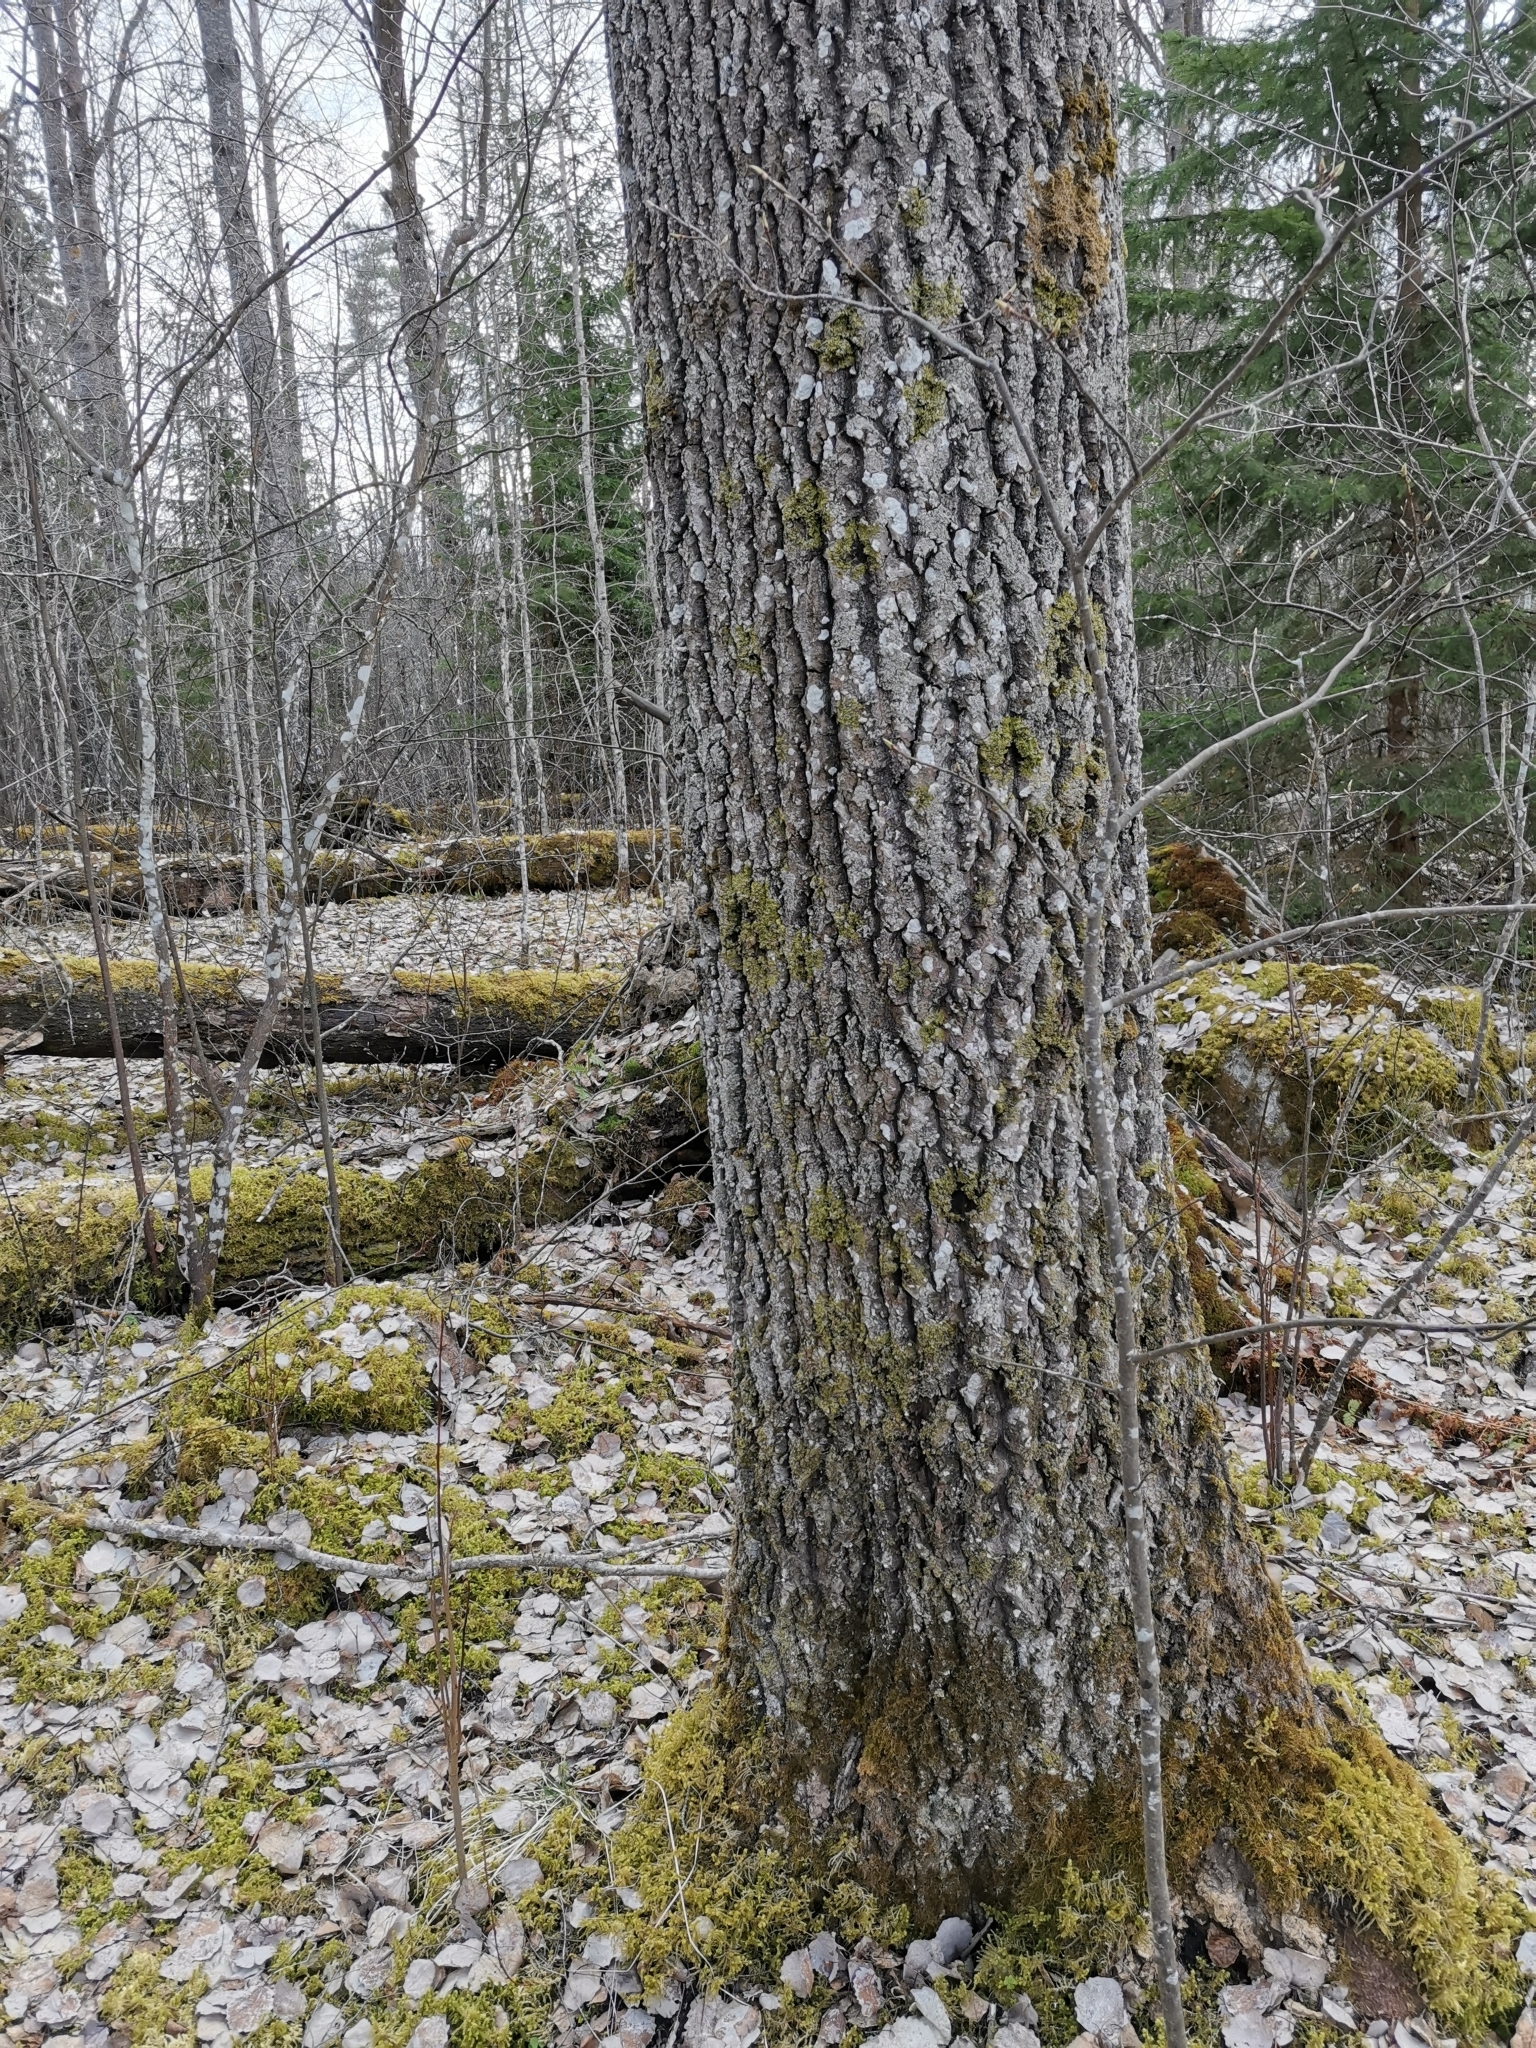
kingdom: Animalia
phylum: Chordata
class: Mammalia
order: Rodentia
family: Sciuridae
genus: Pteromys
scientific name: Pteromys volans
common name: Siberian flying squirrel
